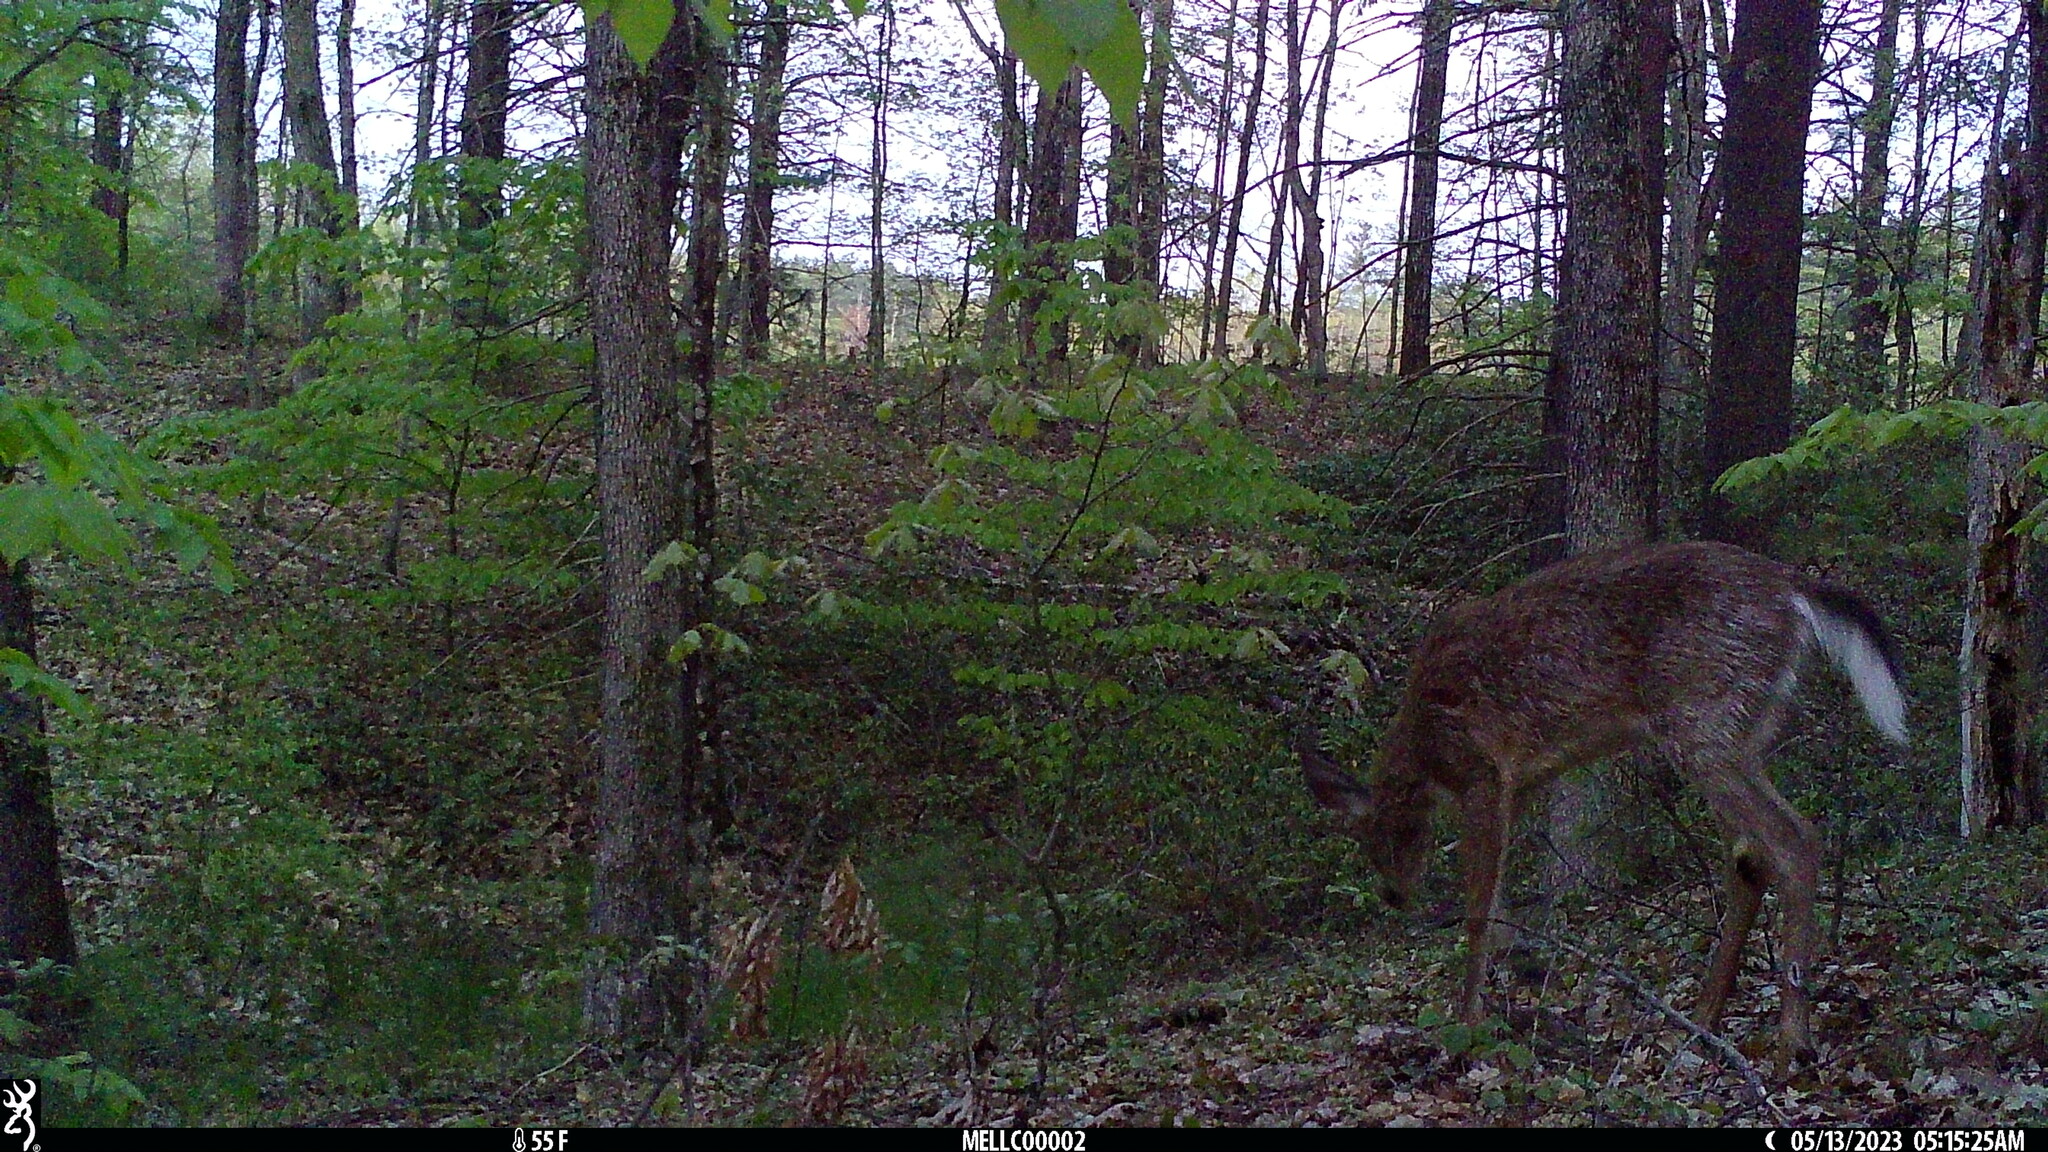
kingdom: Animalia
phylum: Chordata
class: Mammalia
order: Artiodactyla
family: Cervidae
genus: Odocoileus
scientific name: Odocoileus virginianus
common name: White-tailed deer
